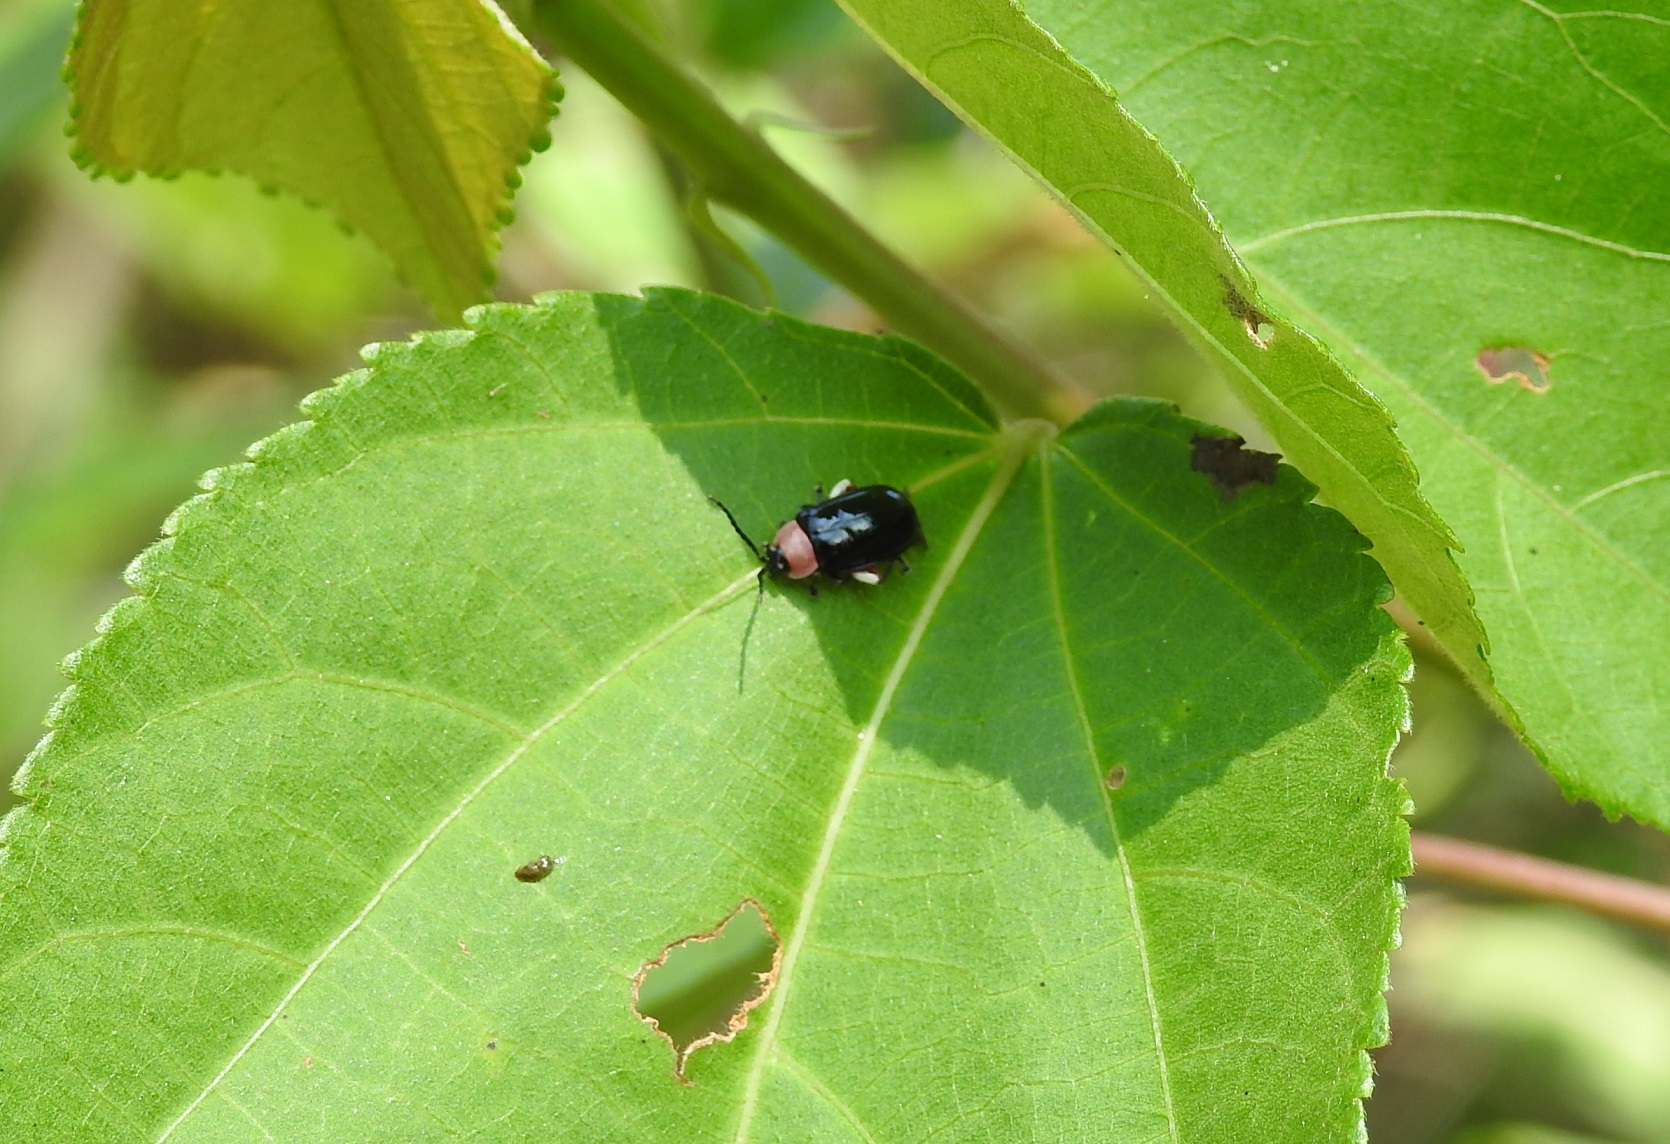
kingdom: Animalia
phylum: Arthropoda
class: Insecta
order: Coleoptera
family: Chrysomelidae
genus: Asphaera
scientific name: Asphaera
